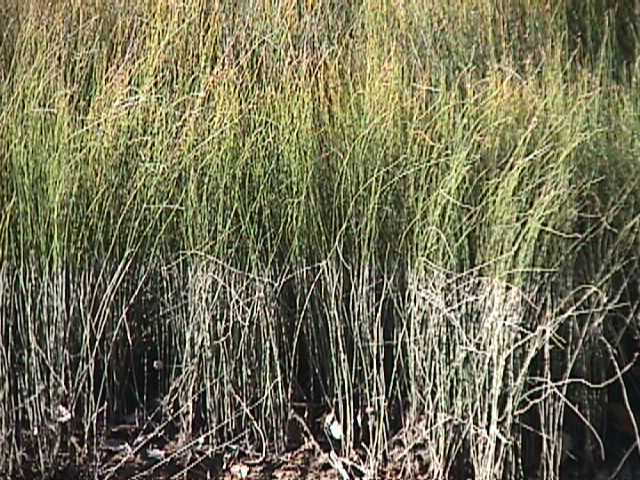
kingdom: Plantae
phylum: Tracheophyta
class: Liliopsida
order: Poales
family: Restionaceae
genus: Apodasmia
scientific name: Apodasmia similis
